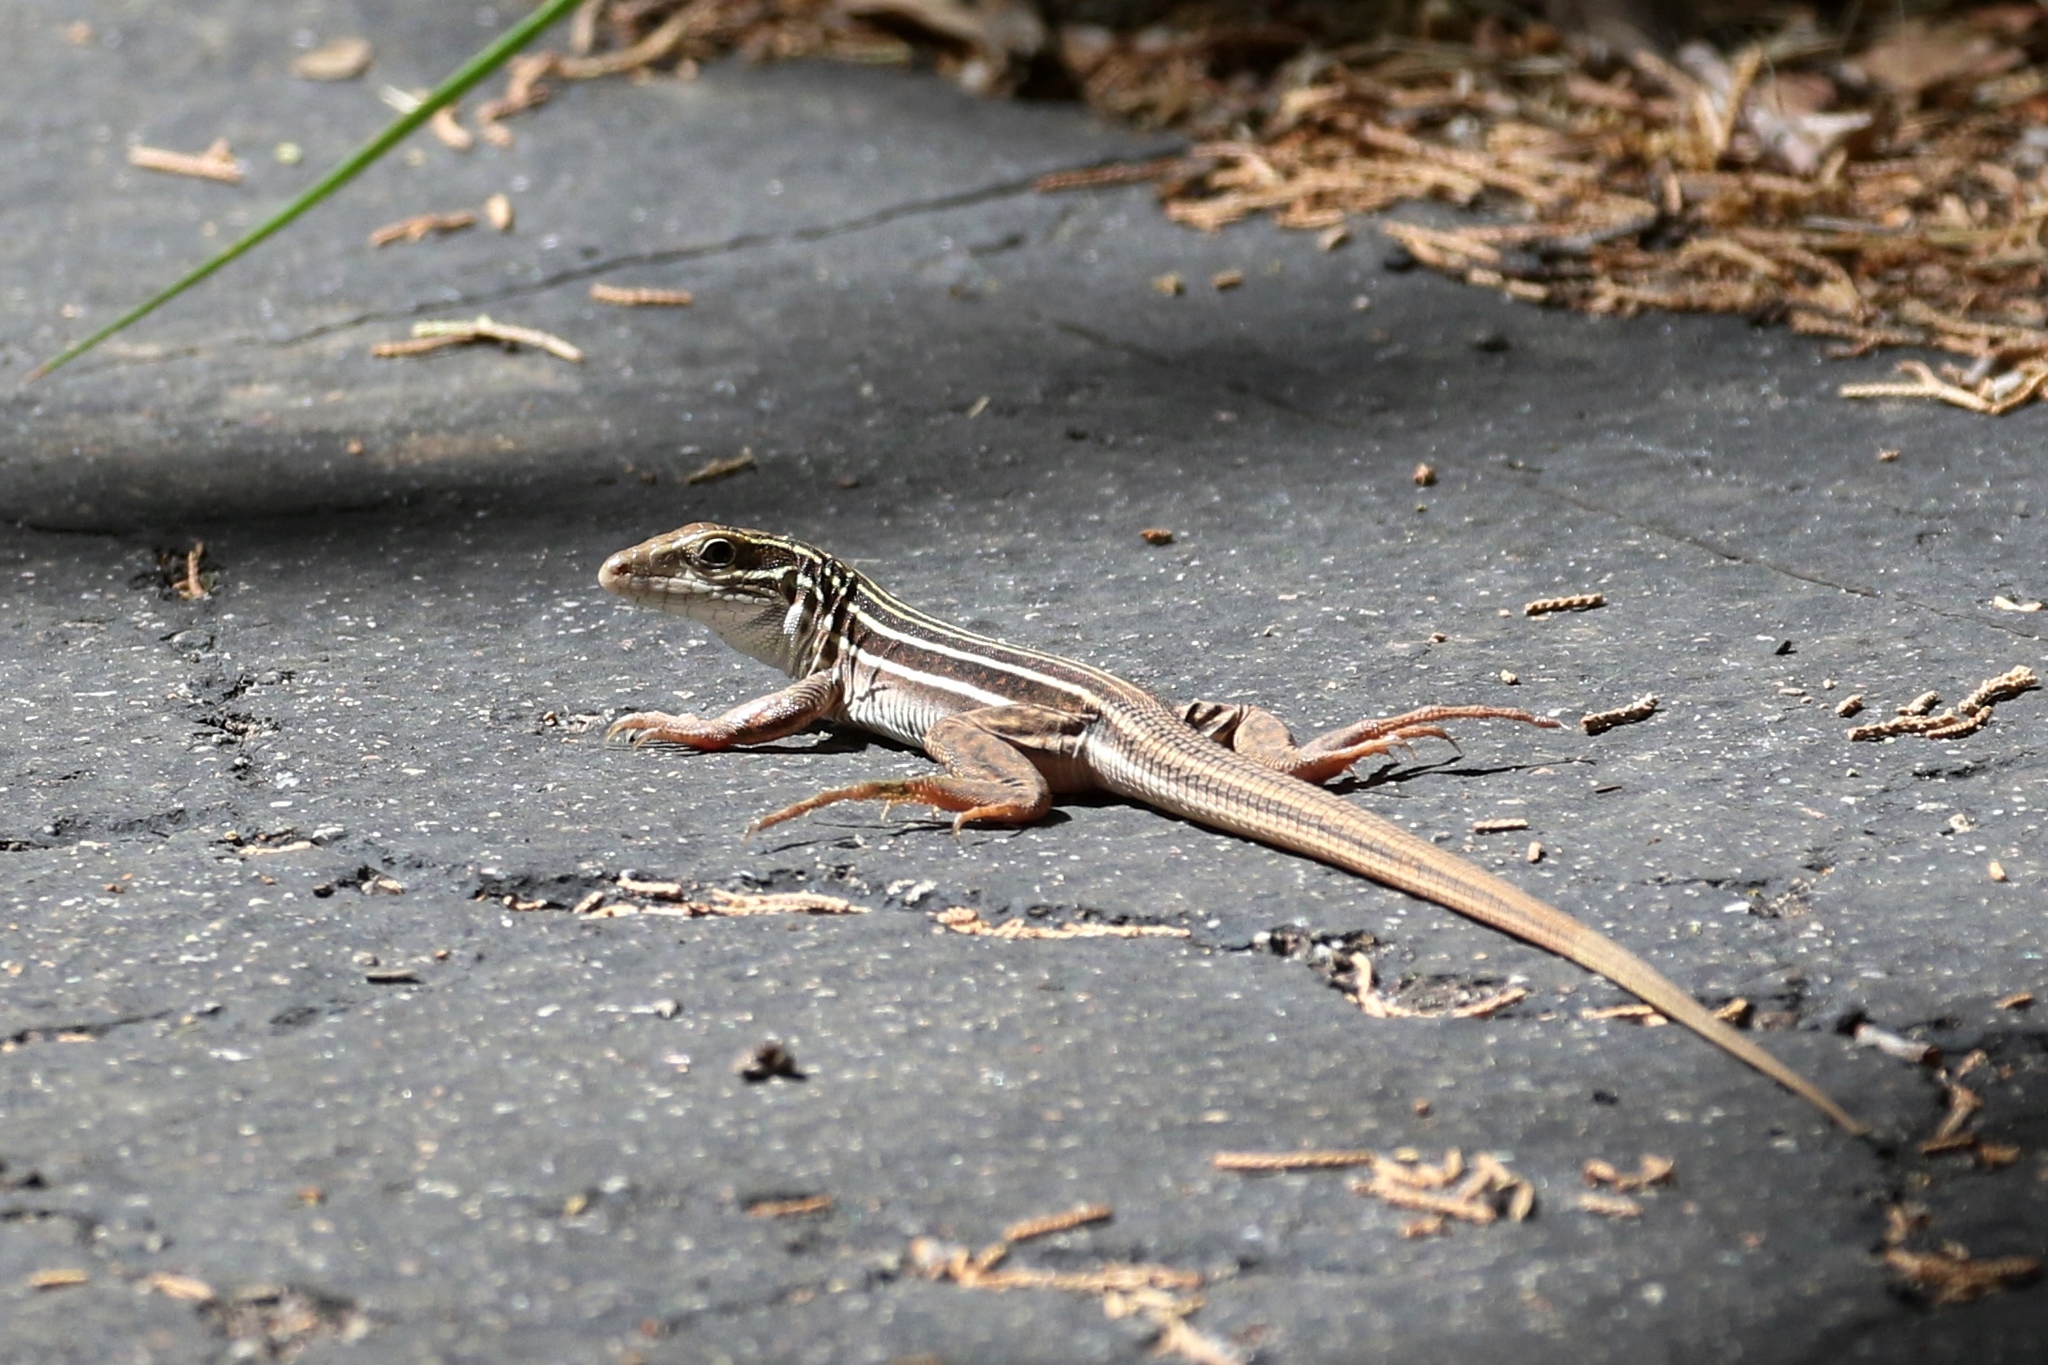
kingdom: Animalia
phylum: Chordata
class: Squamata
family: Teiidae
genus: Aspidoscelis
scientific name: Aspidoscelis sonorae
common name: Sonoran spotted whiptail
